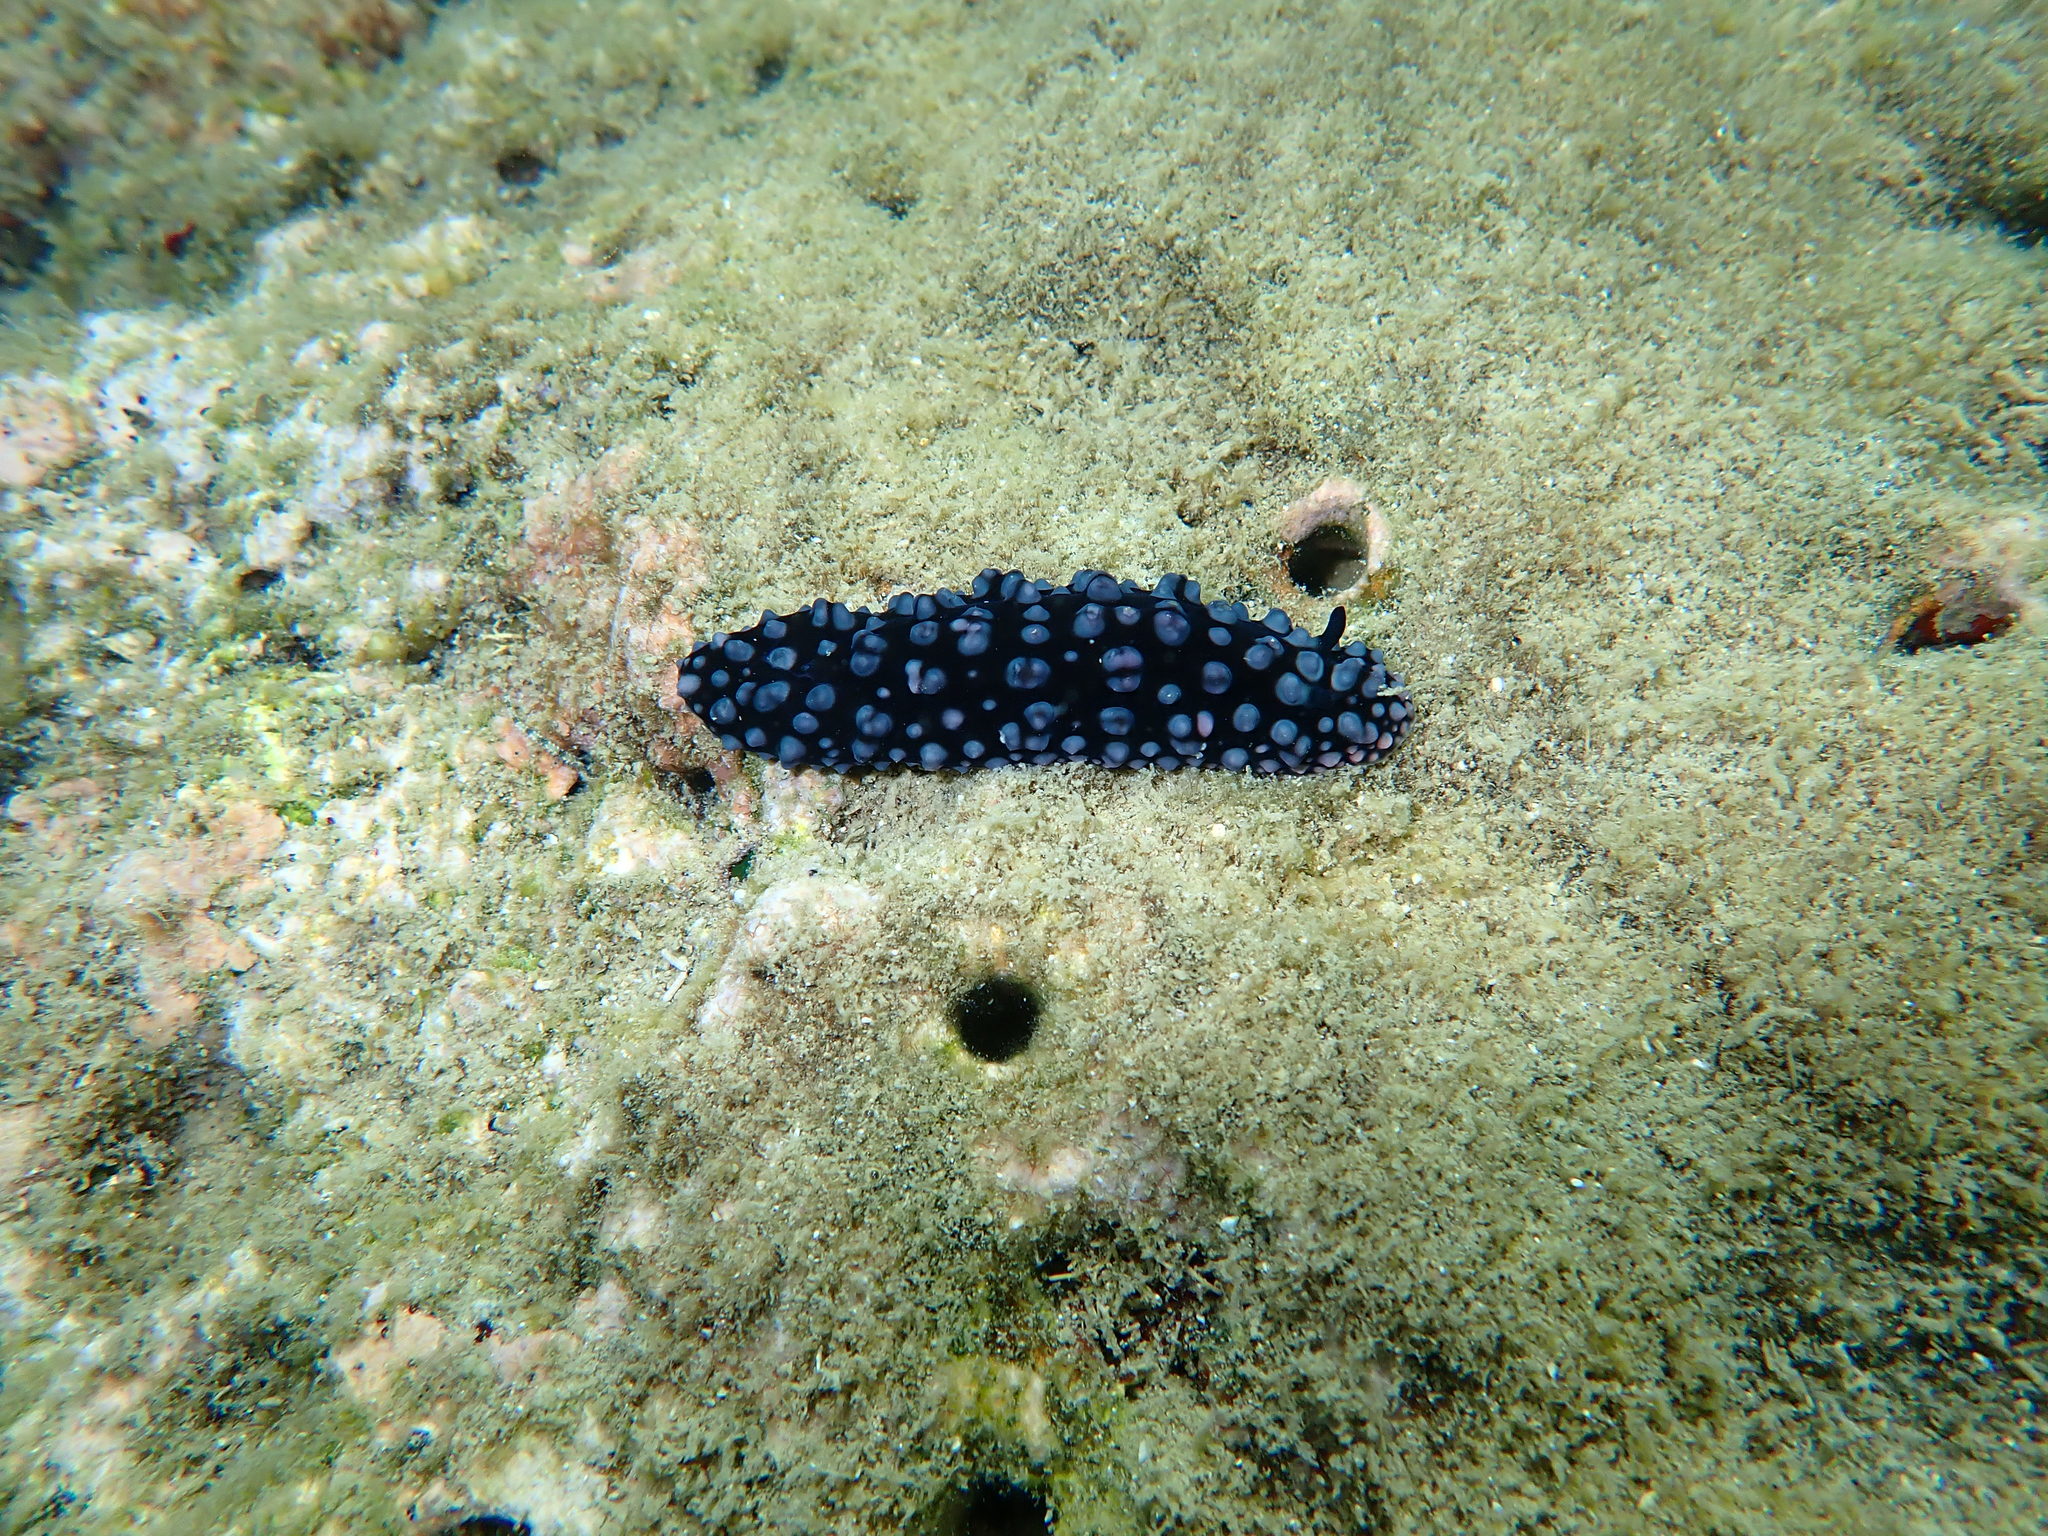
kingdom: Animalia
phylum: Mollusca
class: Gastropoda
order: Nudibranchia
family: Phyllidiidae
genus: Phyllidiella
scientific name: Phyllidiella nigra
